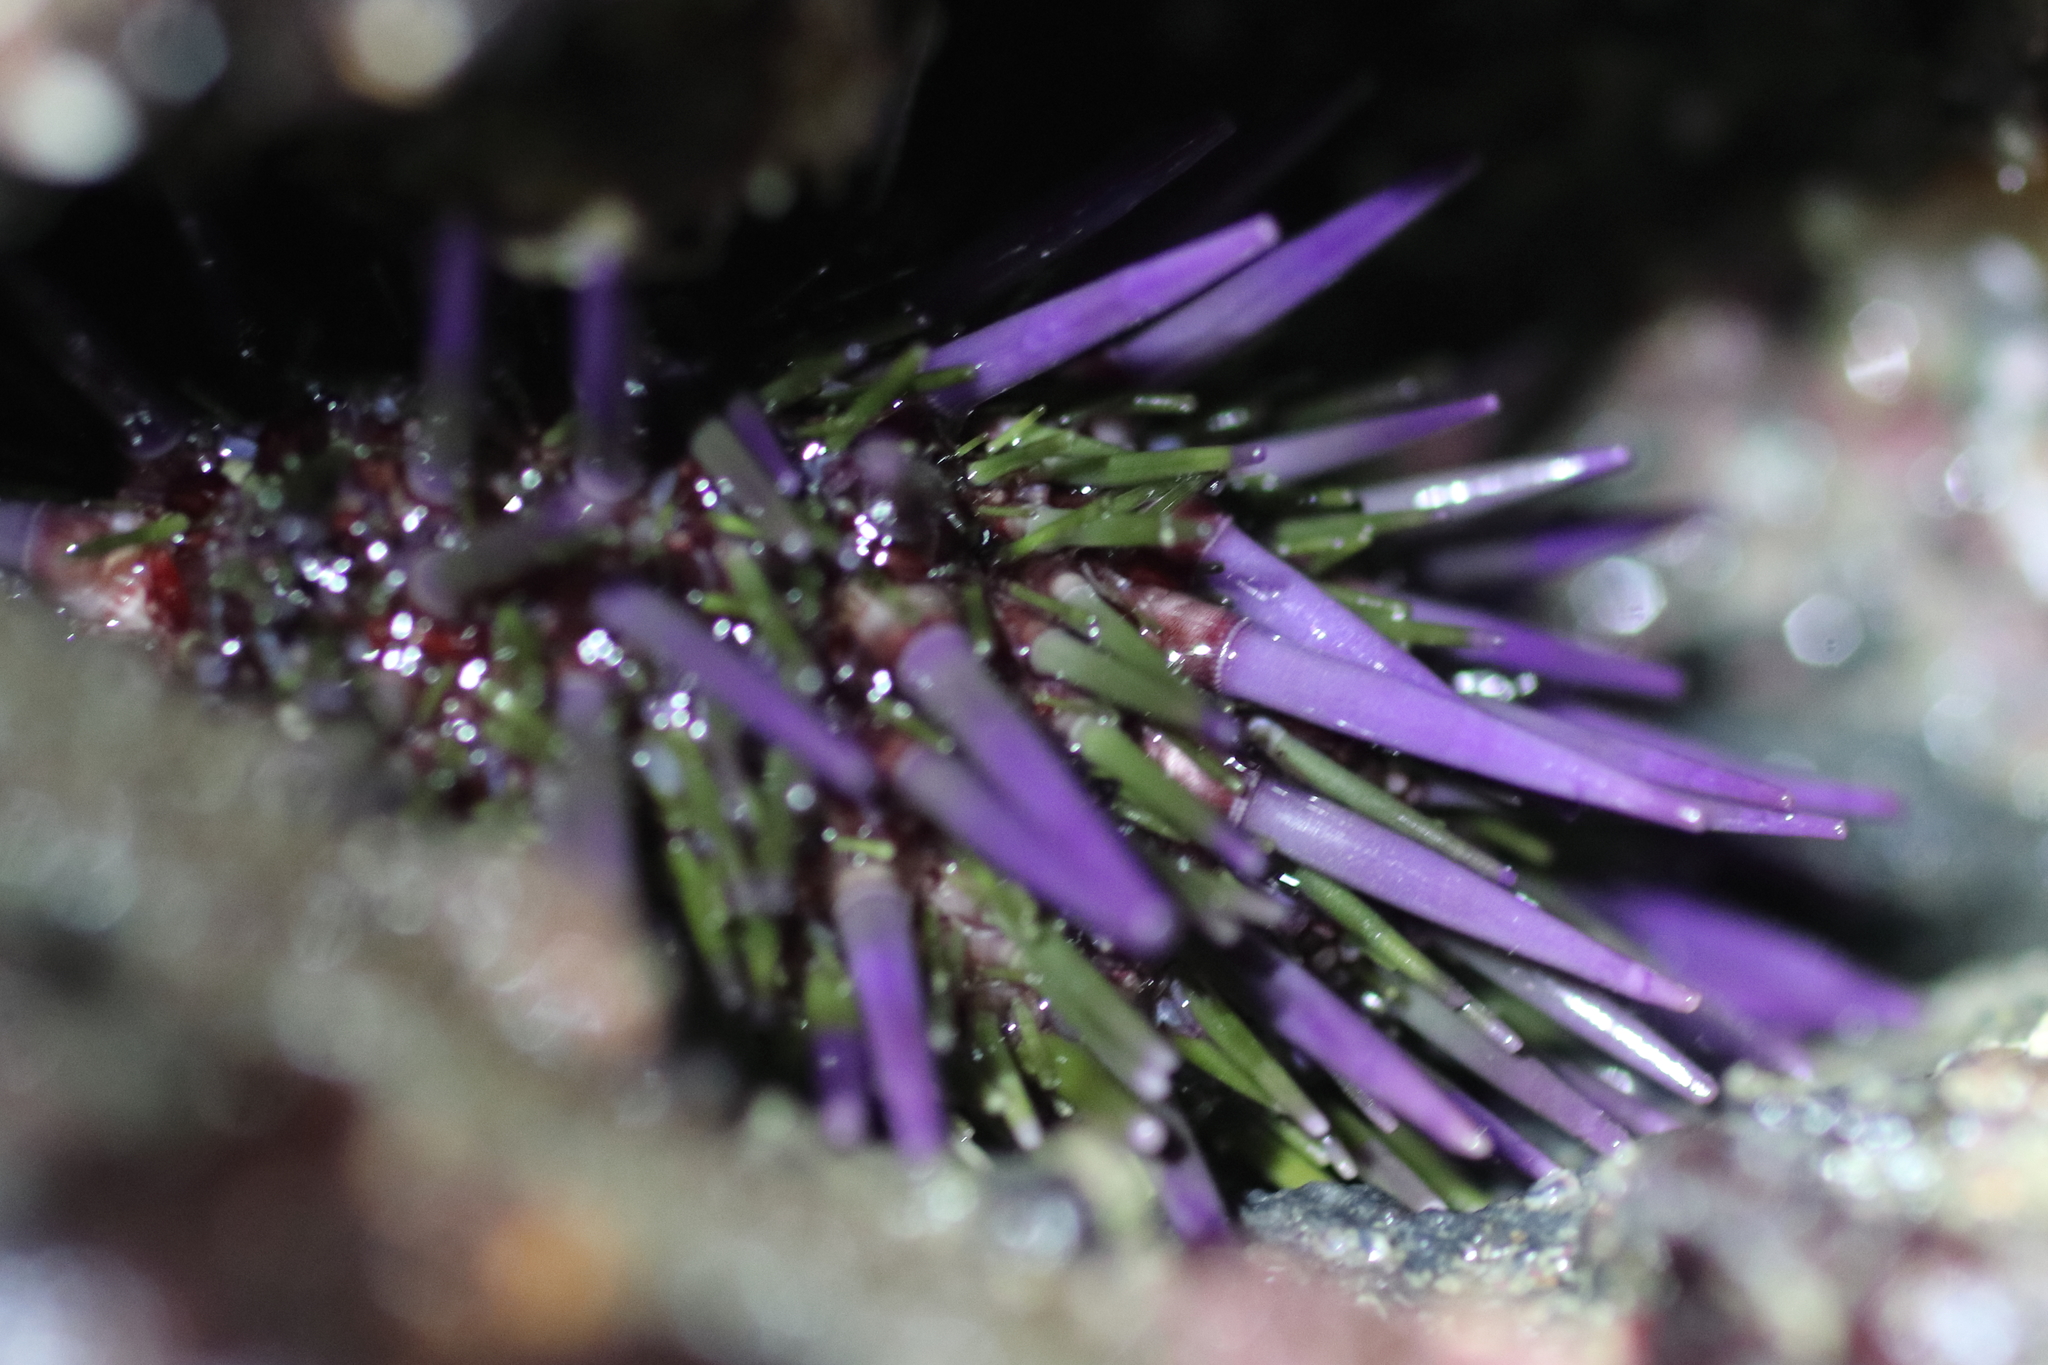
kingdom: Animalia
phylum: Echinodermata
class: Echinoidea
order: Camarodonta
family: Strongylocentrotidae
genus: Strongylocentrotus
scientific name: Strongylocentrotus purpuratus
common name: Purple sea urchin
